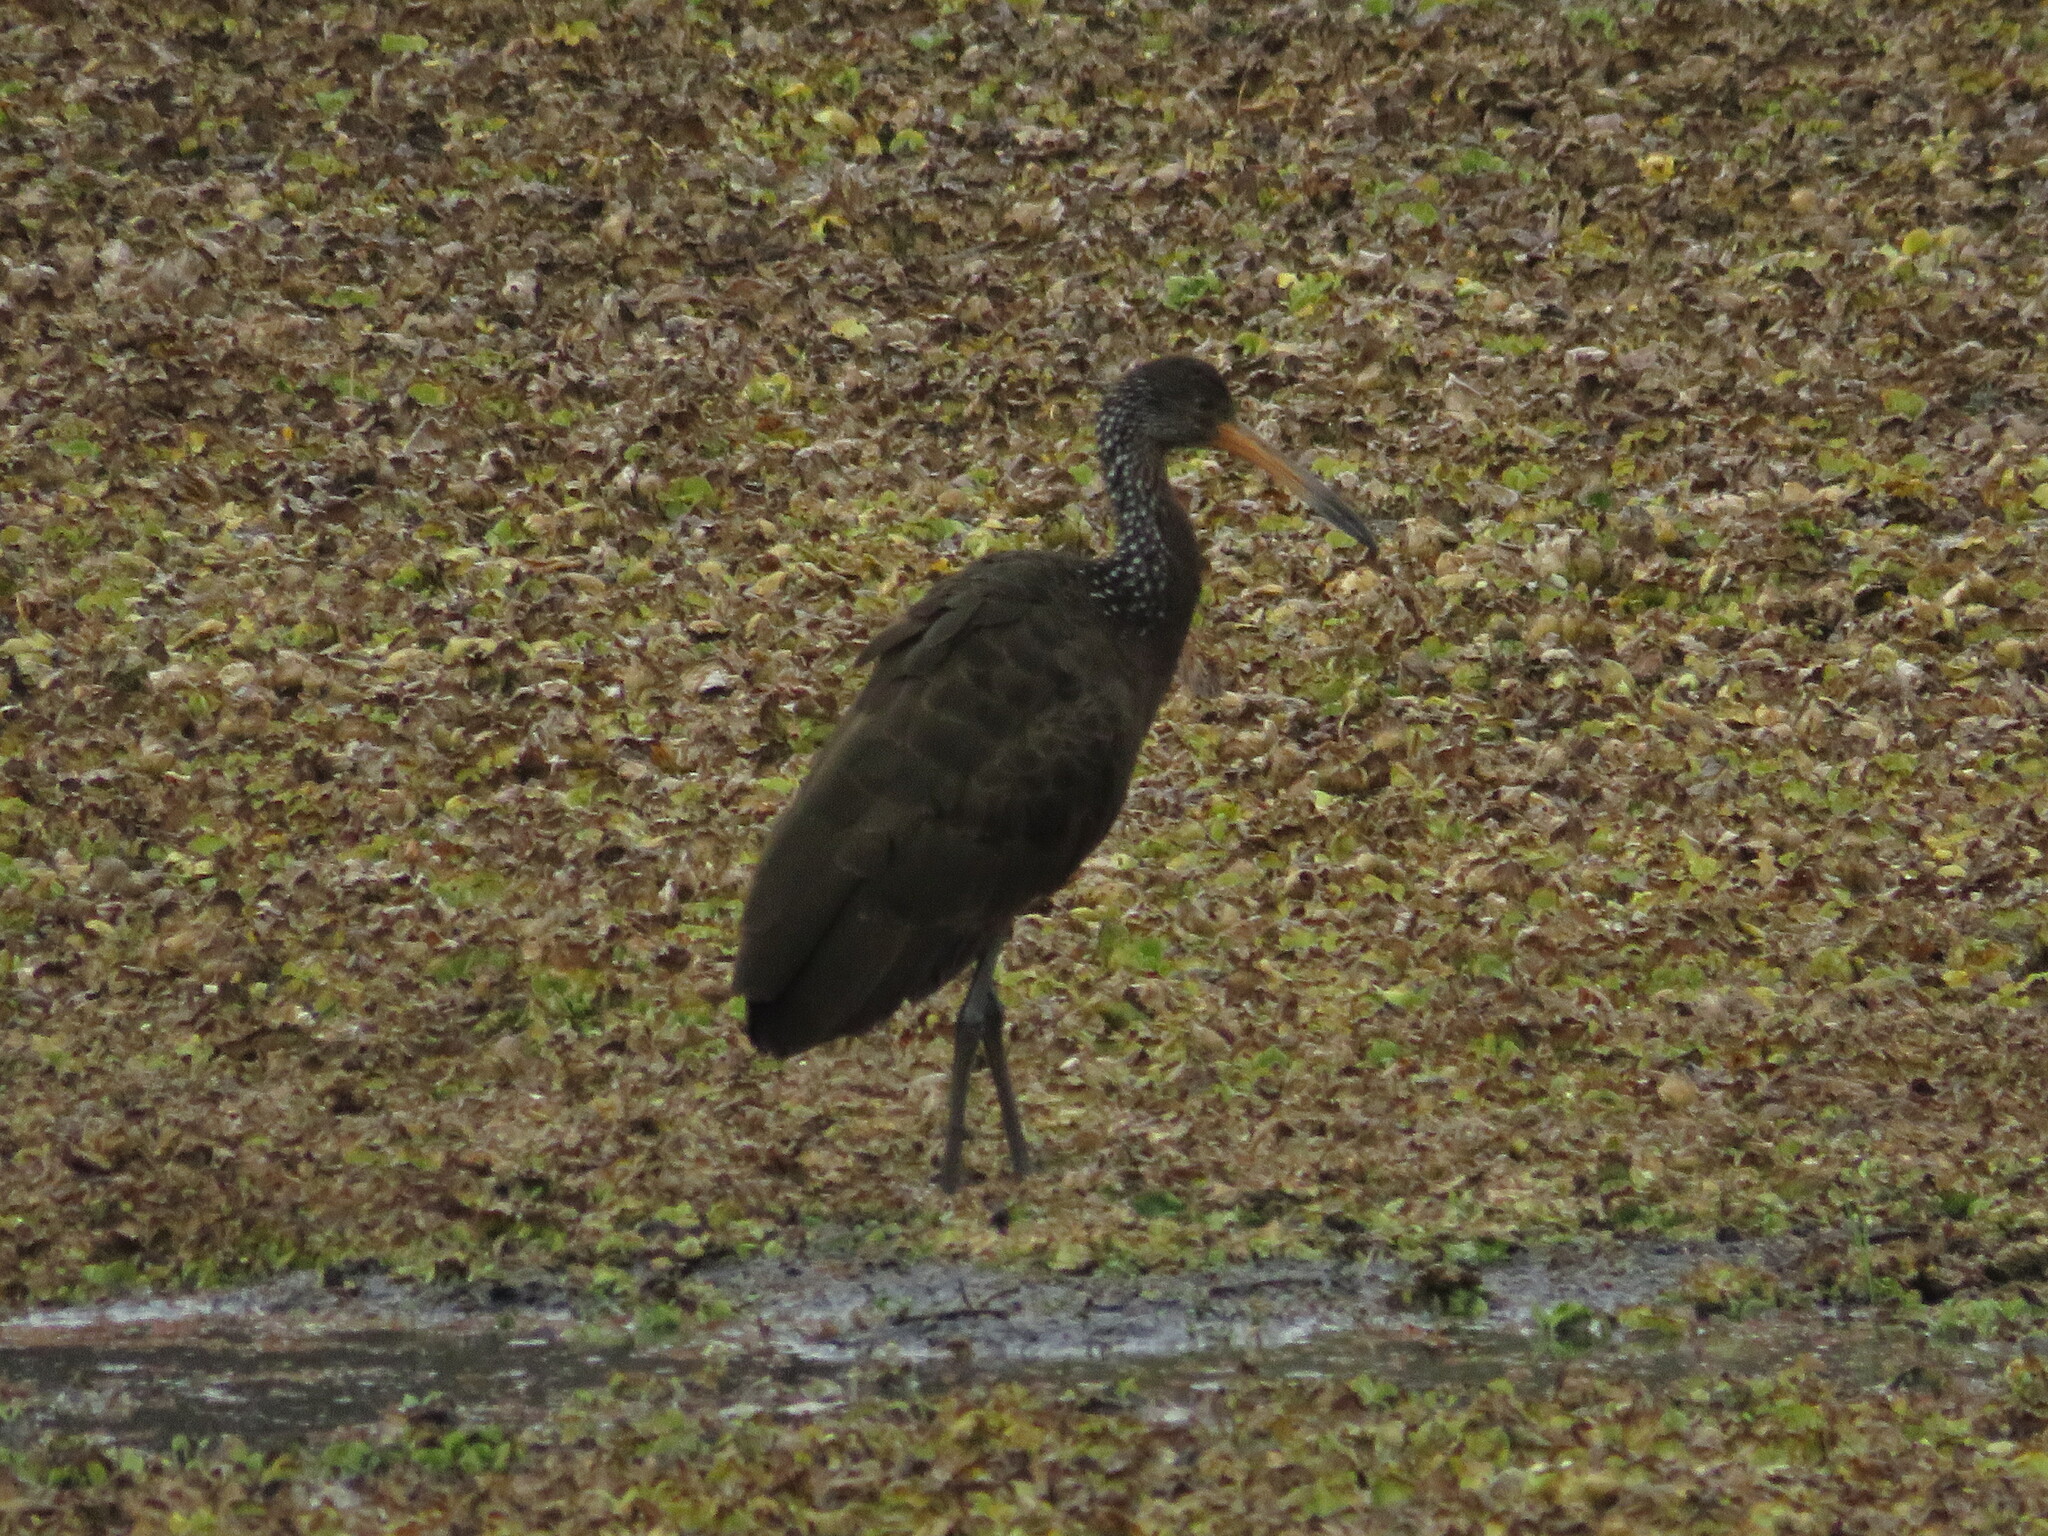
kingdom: Animalia
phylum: Chordata
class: Aves
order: Gruiformes
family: Aramidae
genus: Aramus
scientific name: Aramus guarauna
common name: Limpkin
